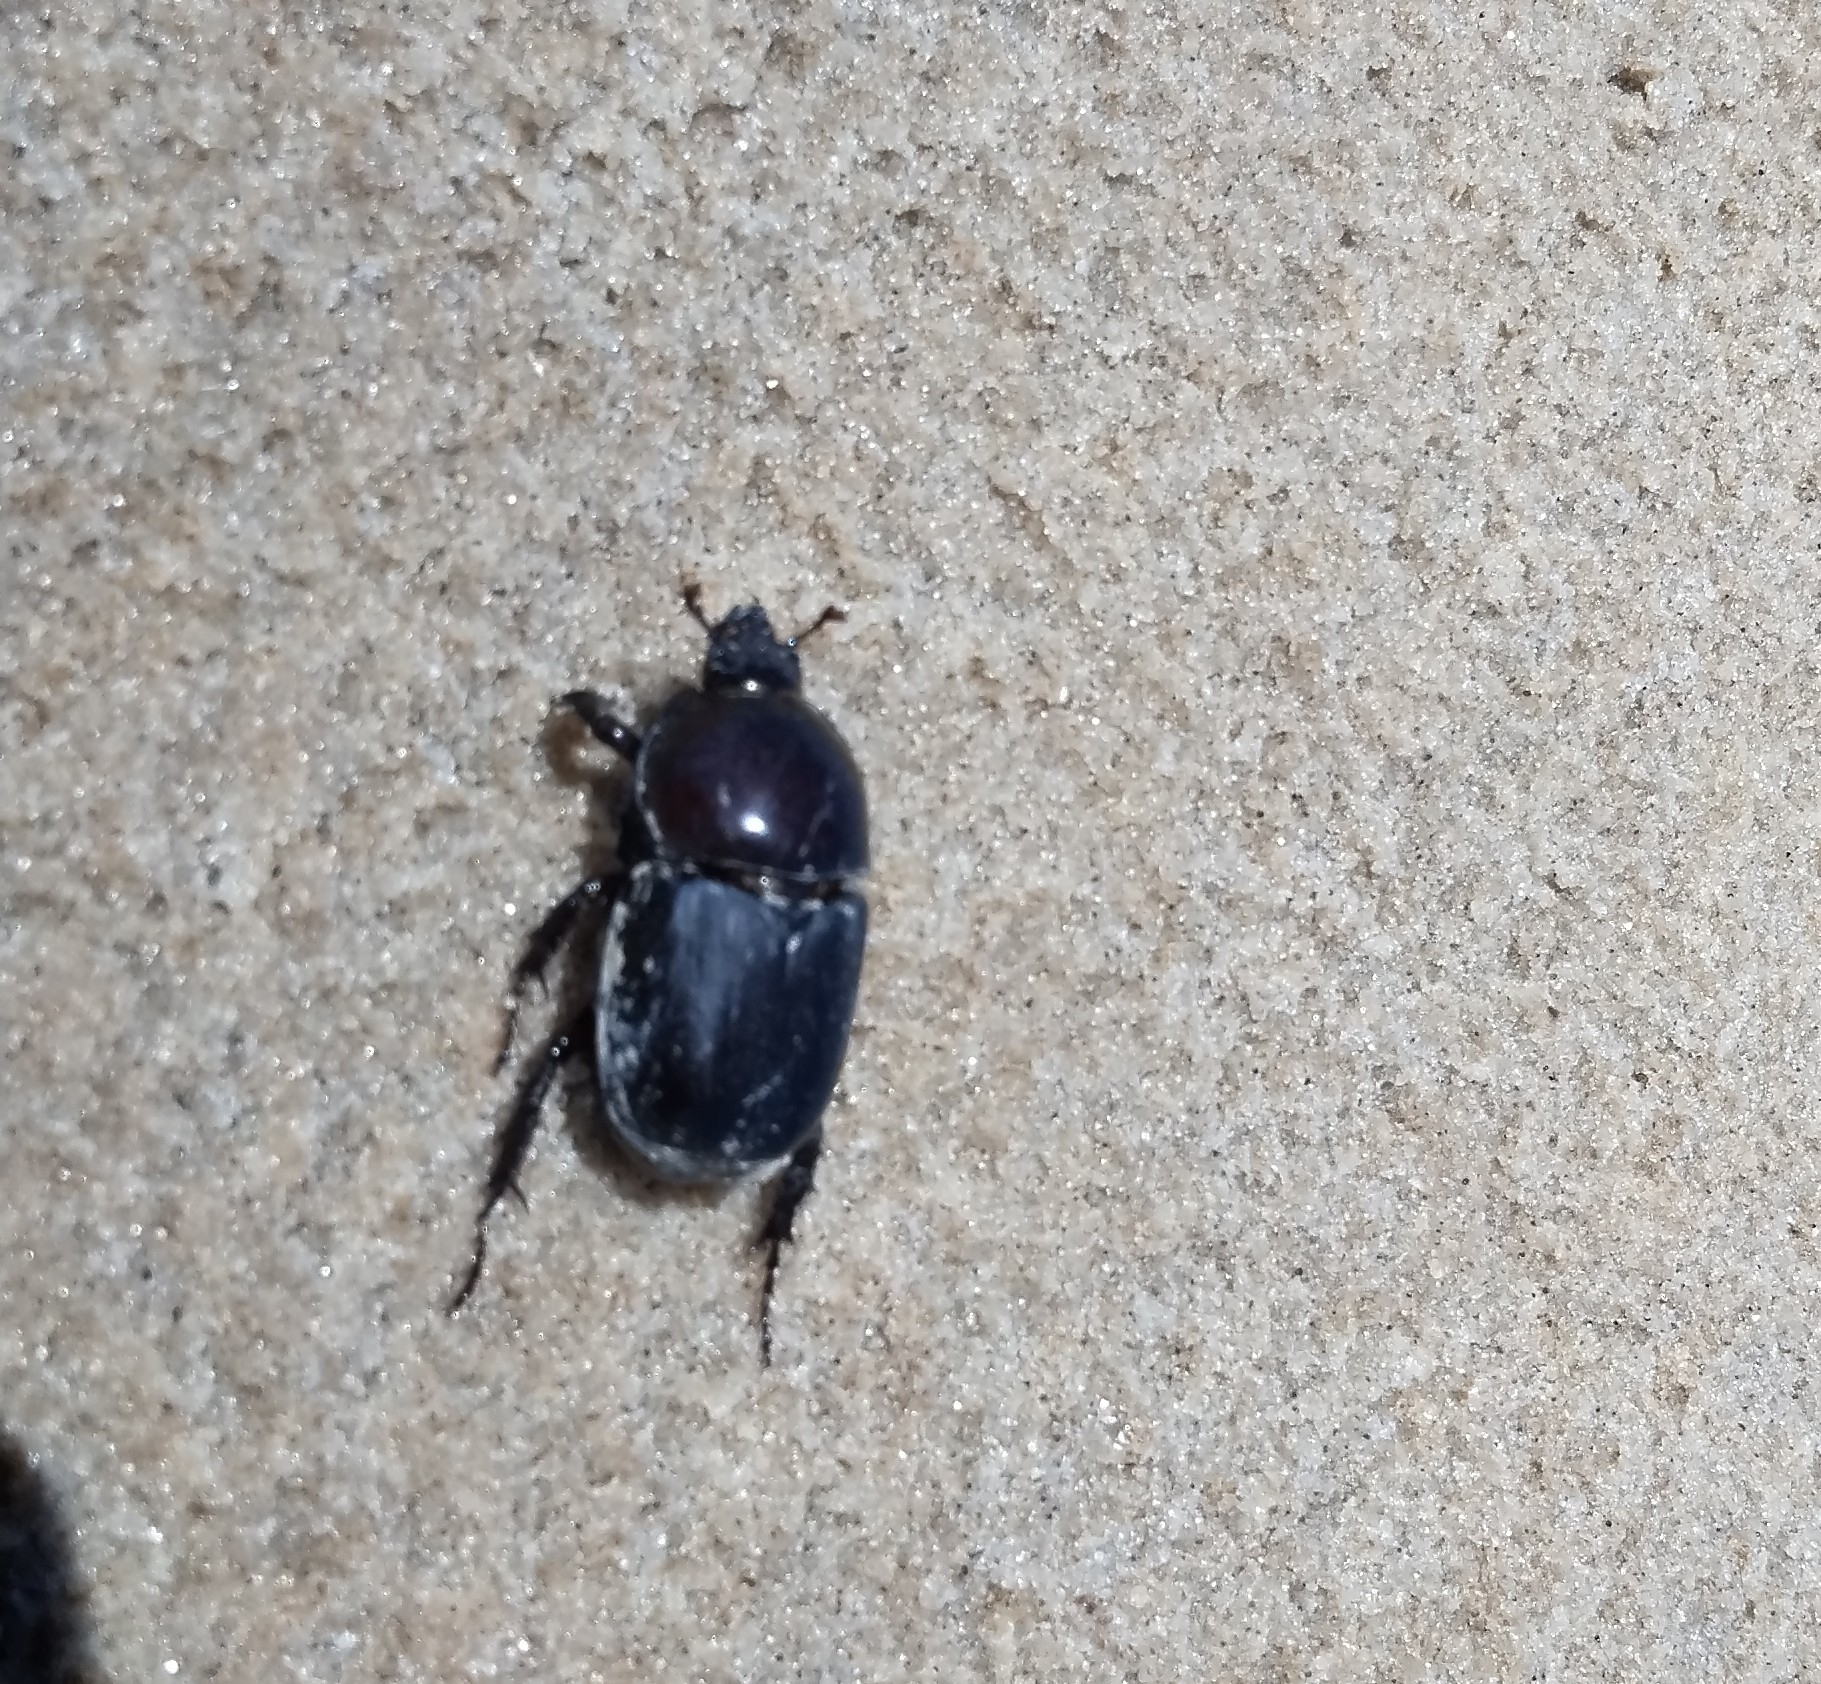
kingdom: Animalia
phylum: Arthropoda
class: Insecta
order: Coleoptera
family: Scarabaeidae
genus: Diloboderus
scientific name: Diloboderus abderus
